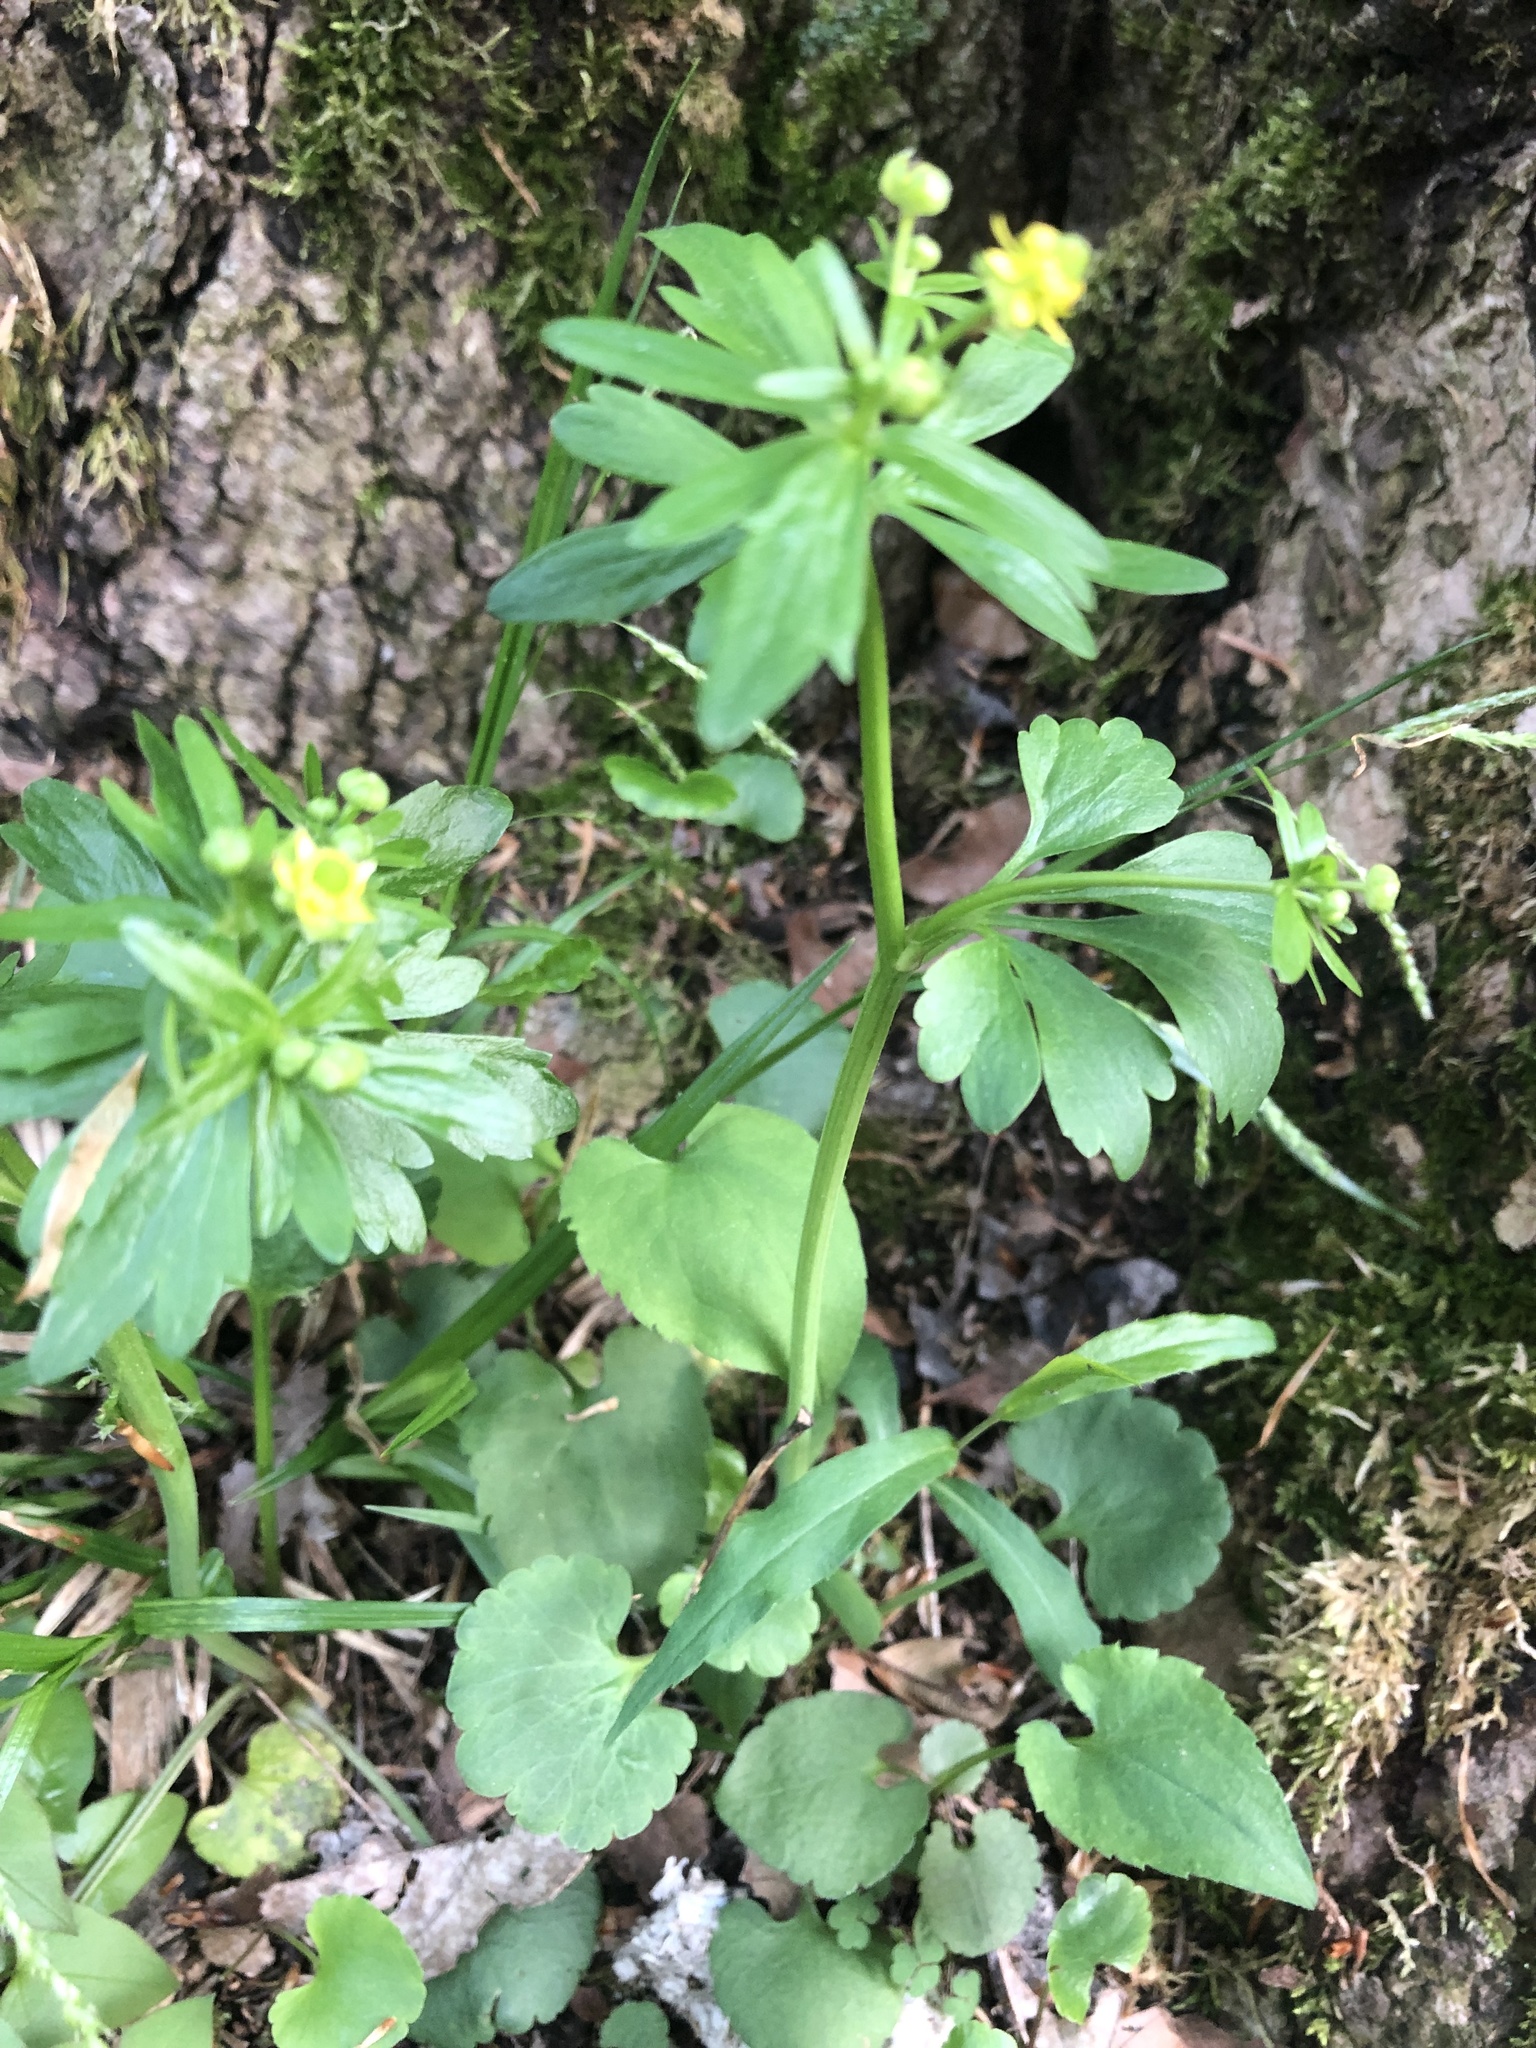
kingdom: Plantae
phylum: Tracheophyta
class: Magnoliopsida
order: Ranunculales
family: Ranunculaceae
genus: Ranunculus
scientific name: Ranunculus abortivus
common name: Early wood buttercup
